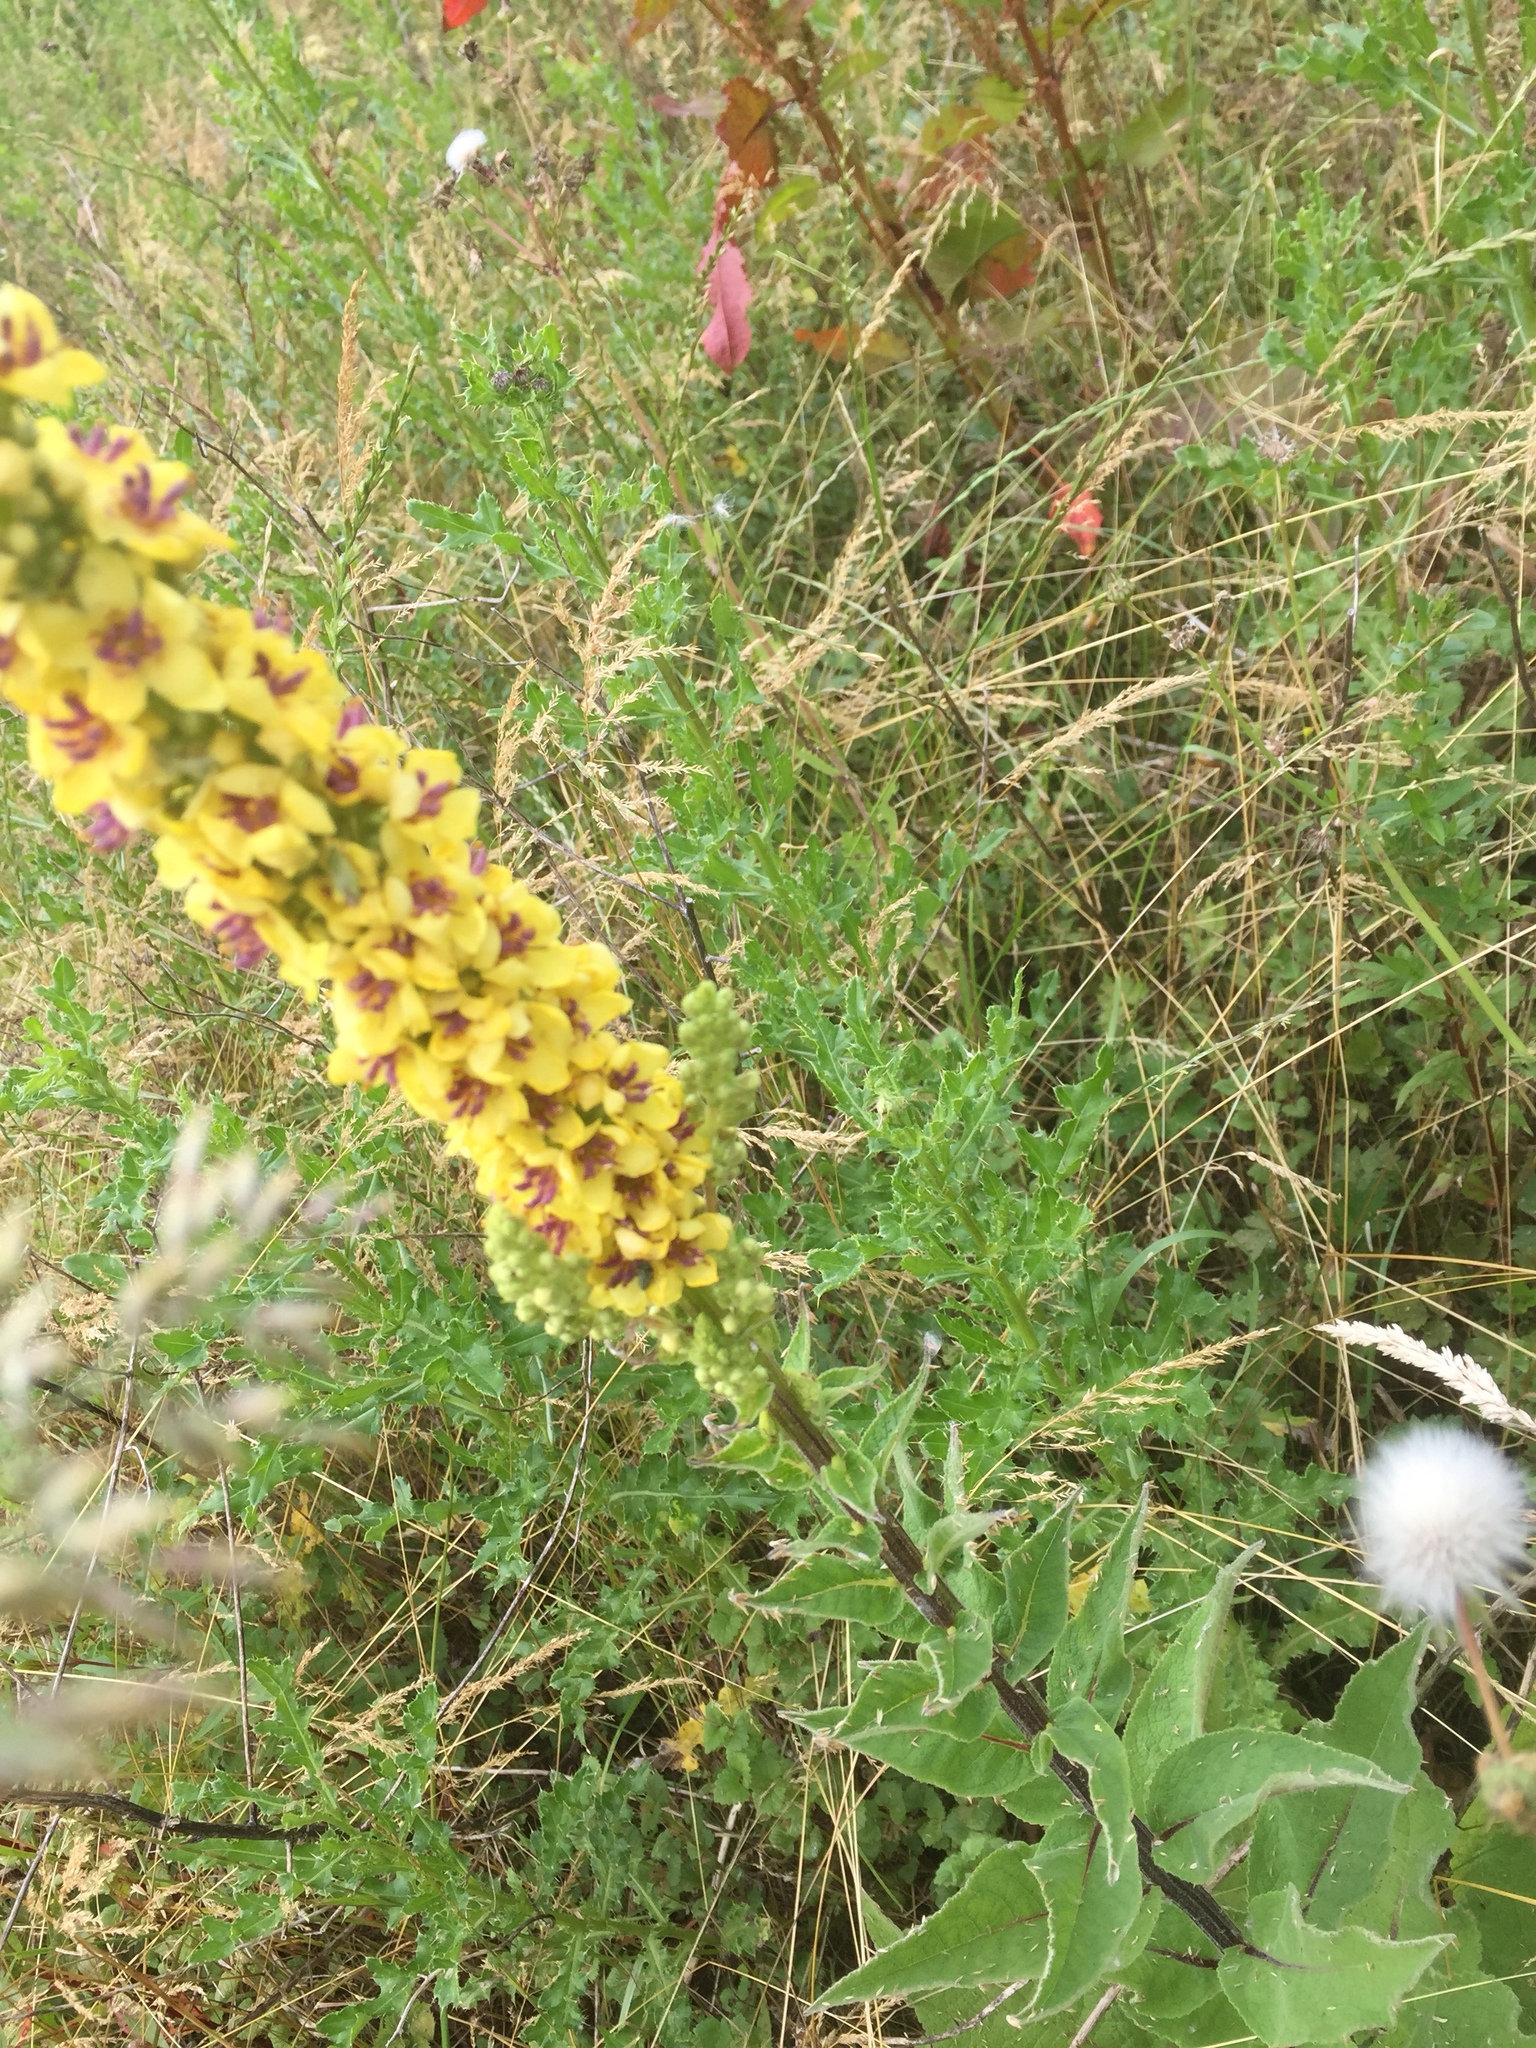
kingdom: Plantae
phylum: Tracheophyta
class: Magnoliopsida
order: Lamiales
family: Scrophulariaceae
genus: Verbascum
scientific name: Verbascum nigrum
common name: Dark mullein
